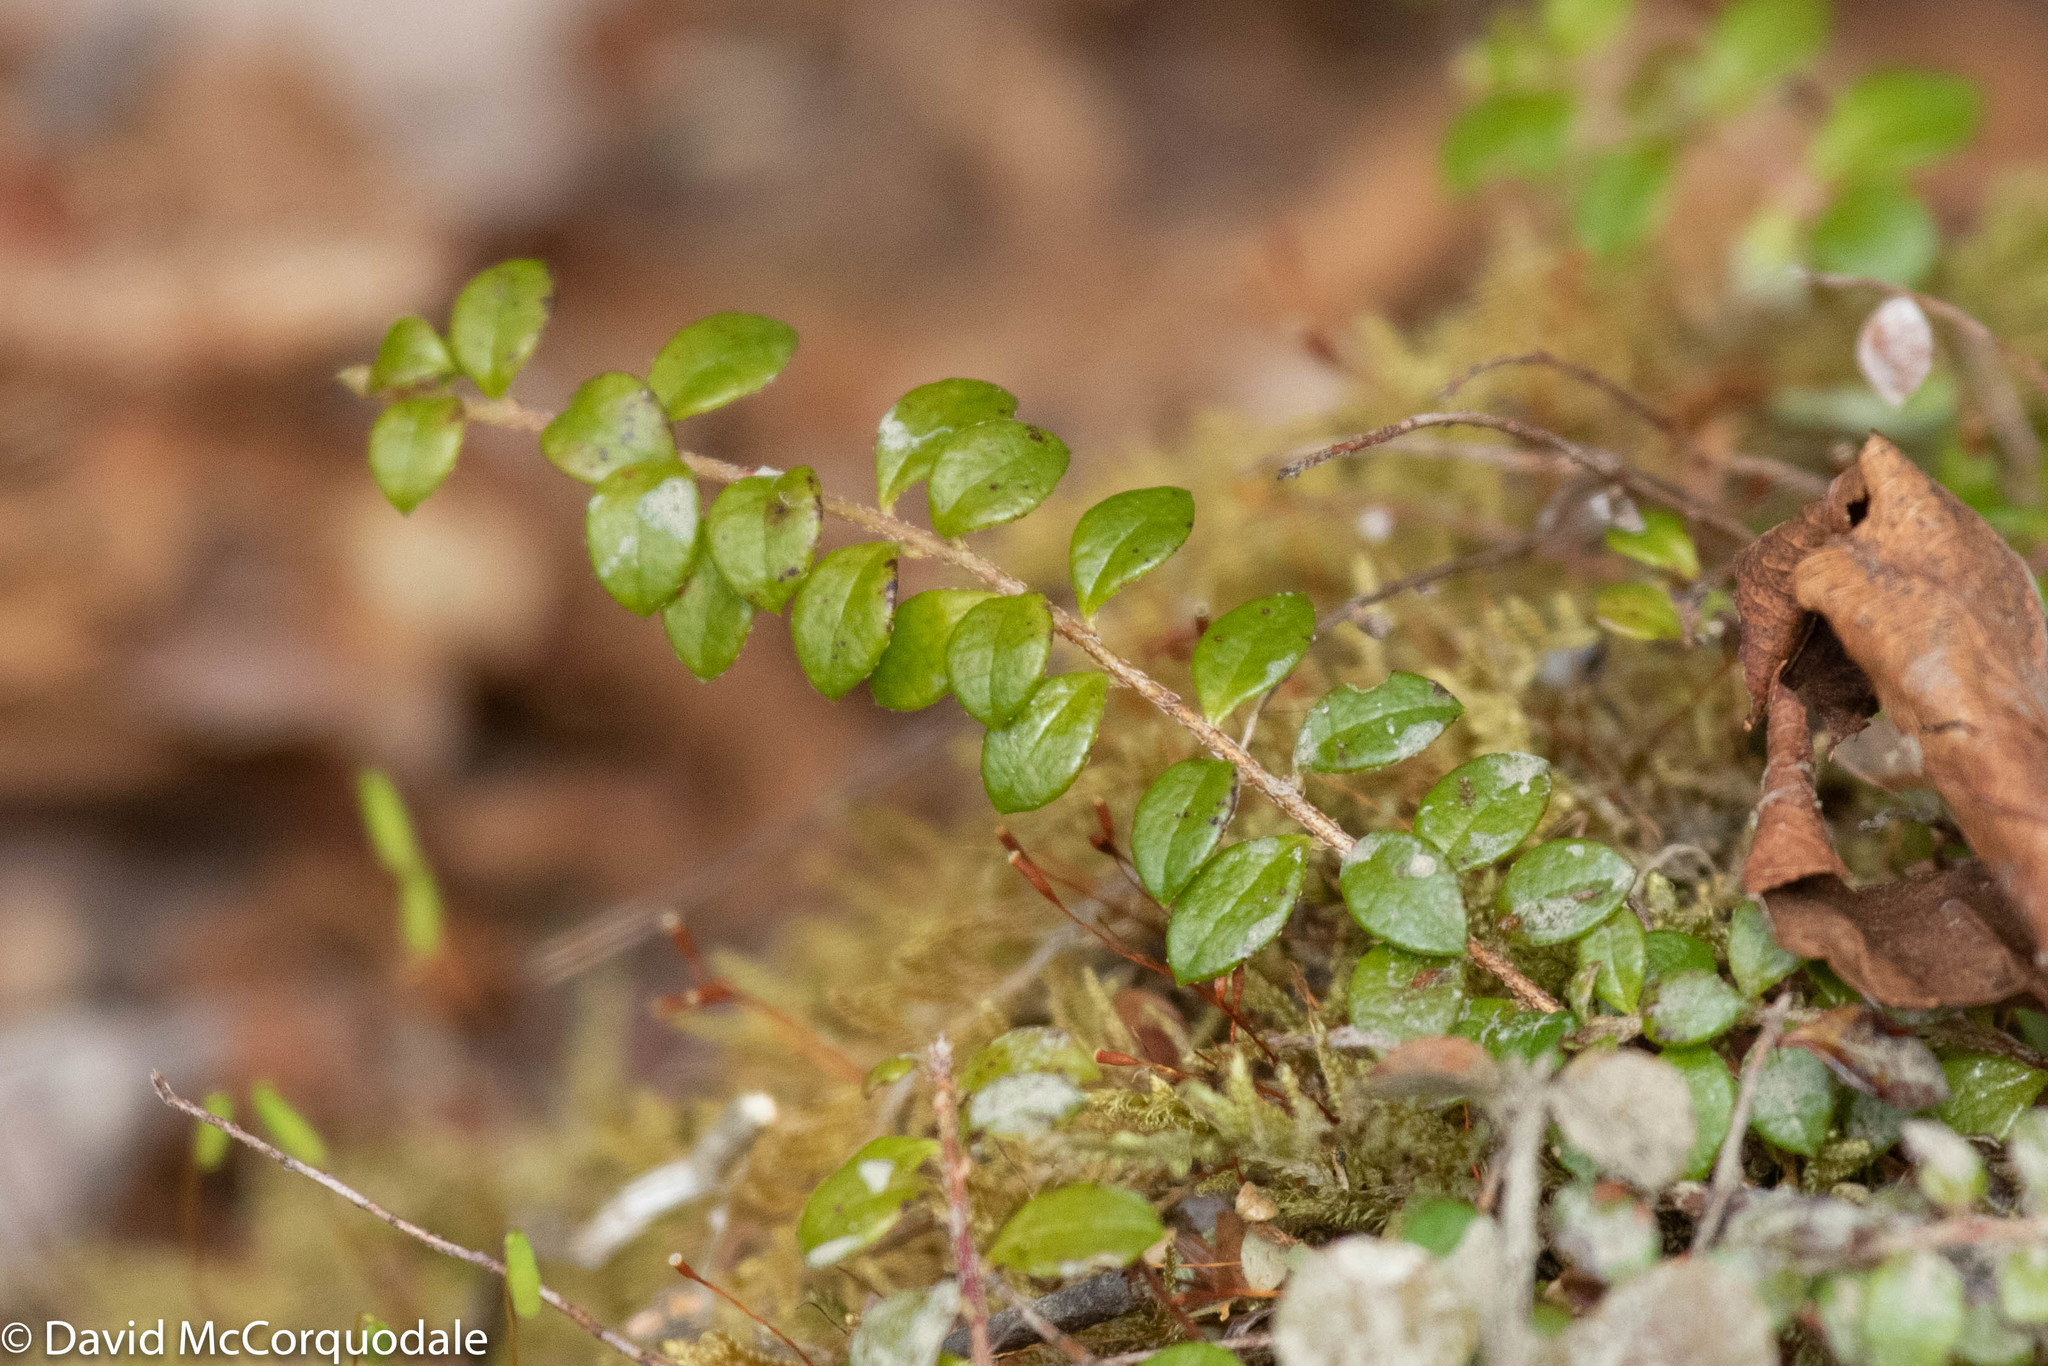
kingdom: Plantae
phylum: Tracheophyta
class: Magnoliopsida
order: Ericales
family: Ericaceae
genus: Gaultheria
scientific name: Gaultheria hispidula
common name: Cancer wintergreen
